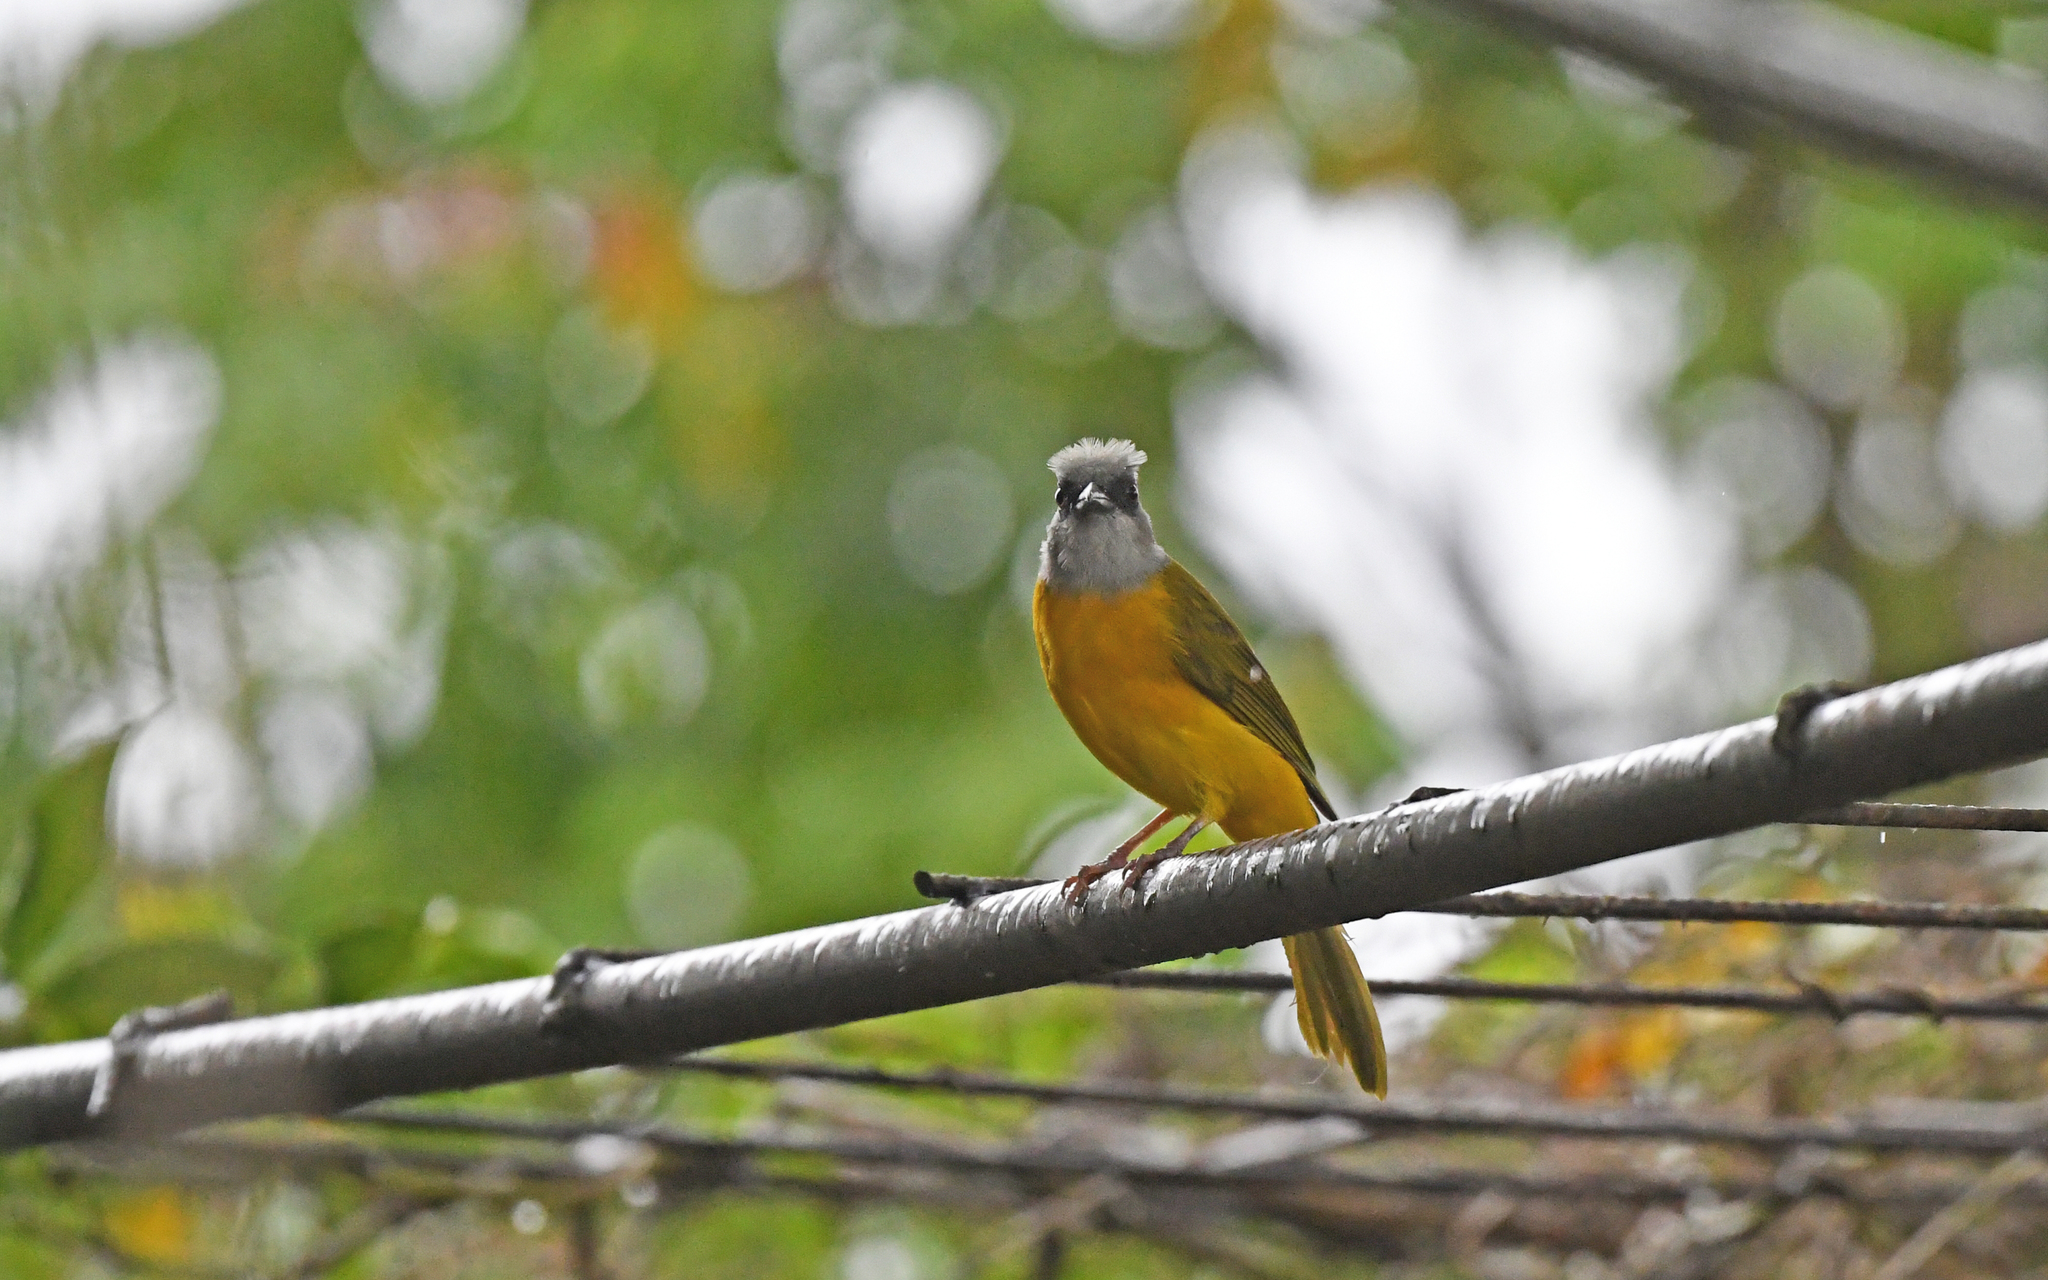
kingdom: Animalia
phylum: Chordata
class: Aves
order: Passeriformes
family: Thraupidae
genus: Eucometis
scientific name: Eucometis penicillata
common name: Grey-headed tanager
